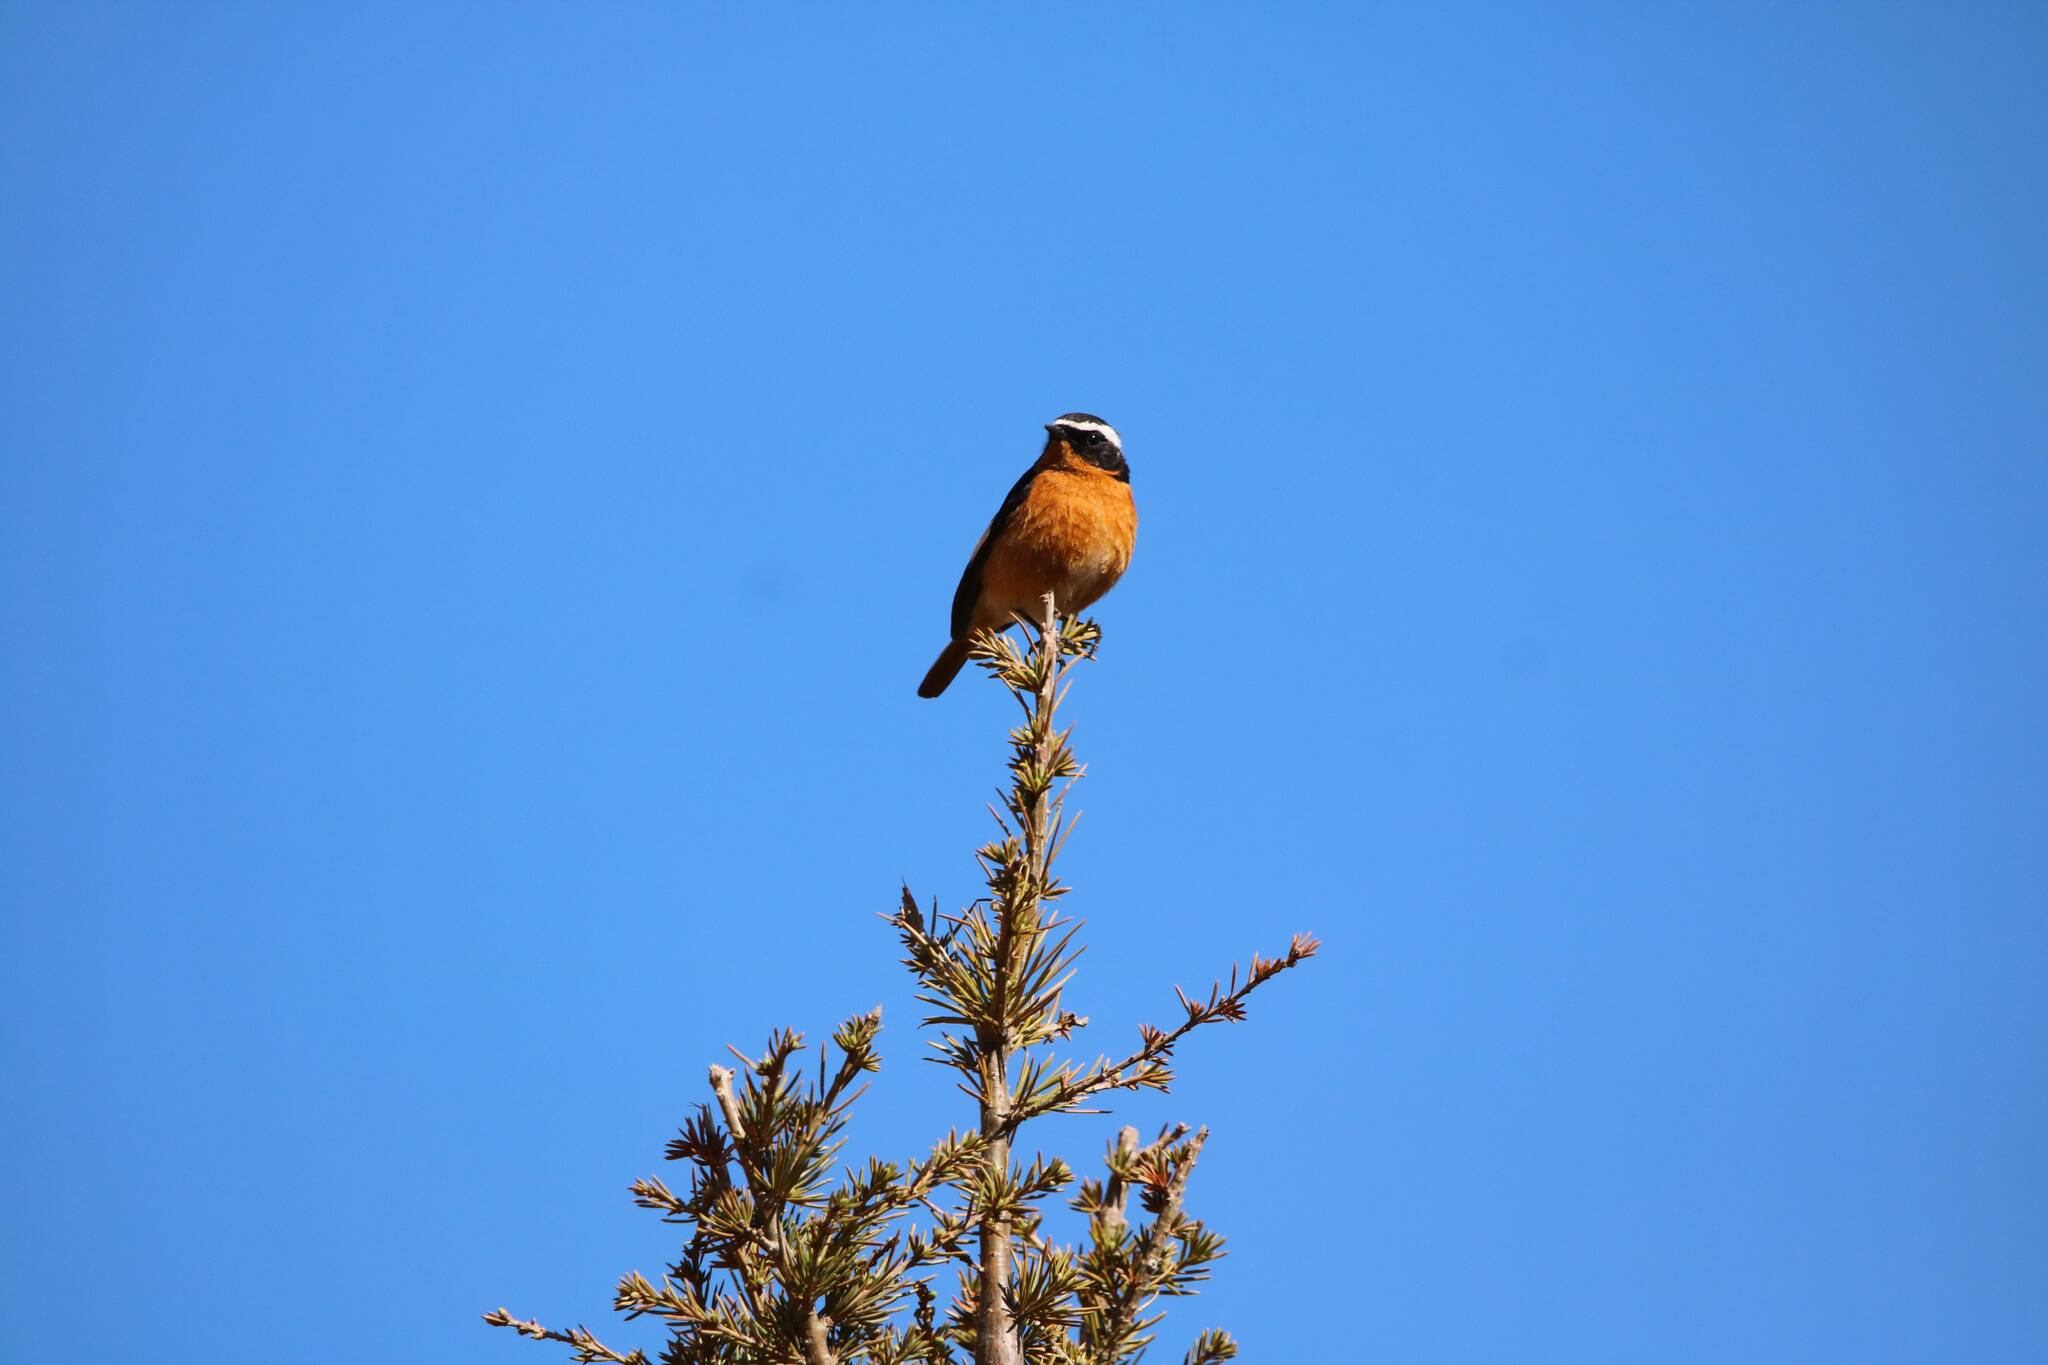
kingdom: Animalia
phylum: Chordata
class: Aves
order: Passeriformes
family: Muscicapidae
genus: Phoenicurus
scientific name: Phoenicurus moussieri
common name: Moussier's redstart
